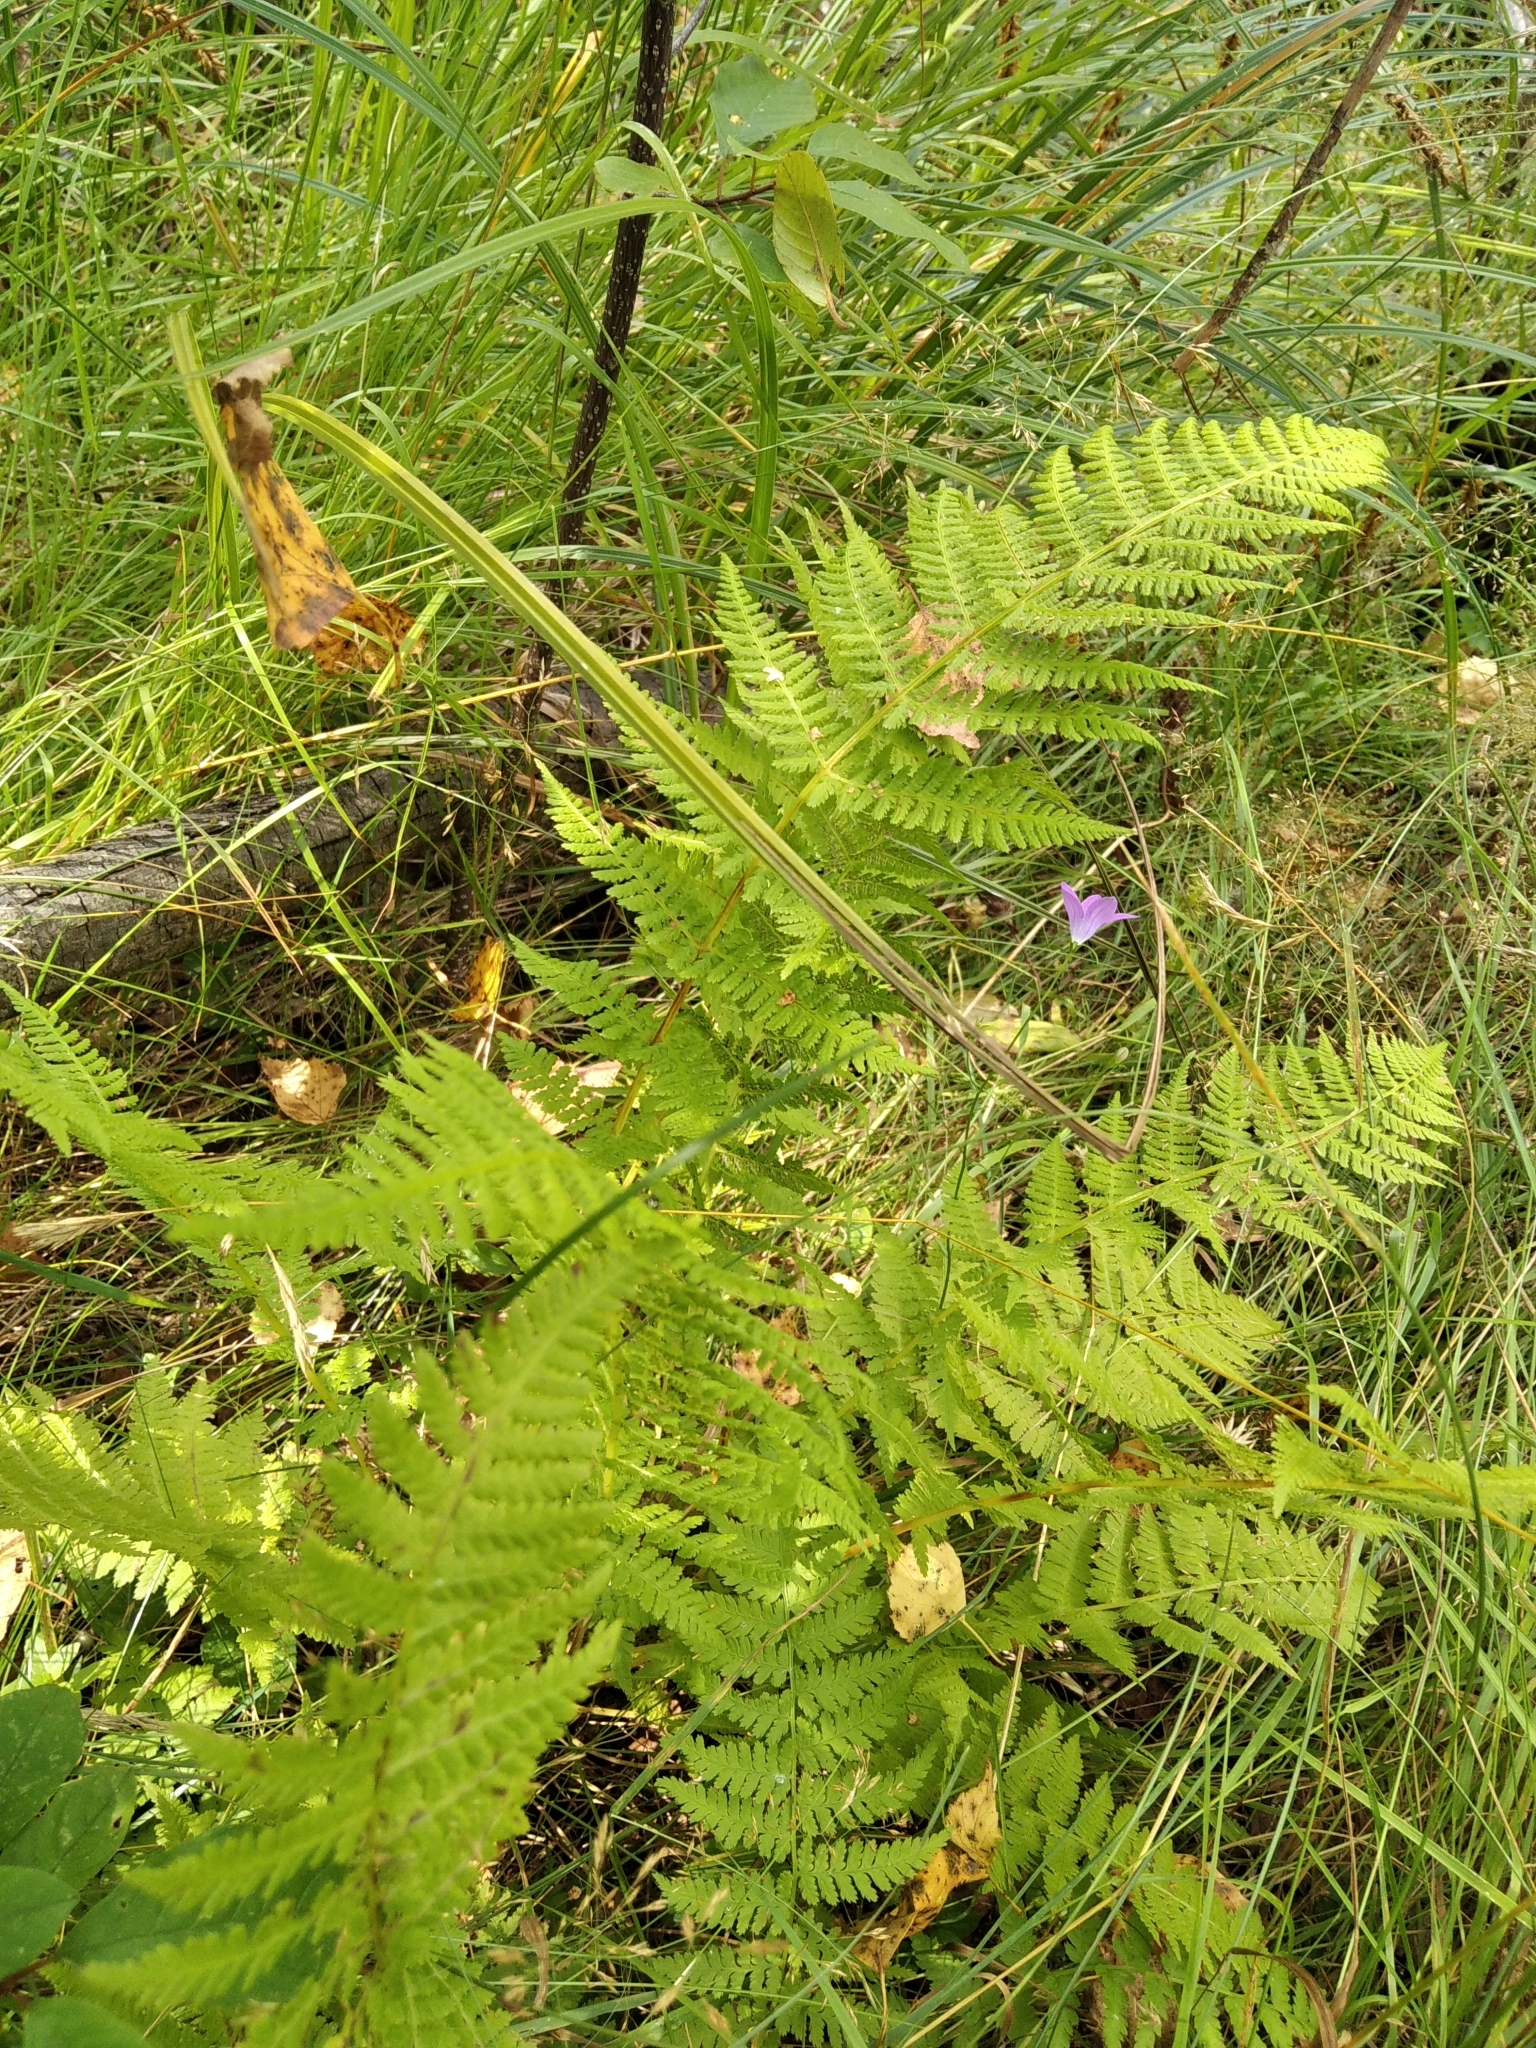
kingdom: Plantae
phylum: Tracheophyta
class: Polypodiopsida
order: Polypodiales
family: Athyriaceae
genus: Athyrium
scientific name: Athyrium filix-femina
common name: Lady fern
